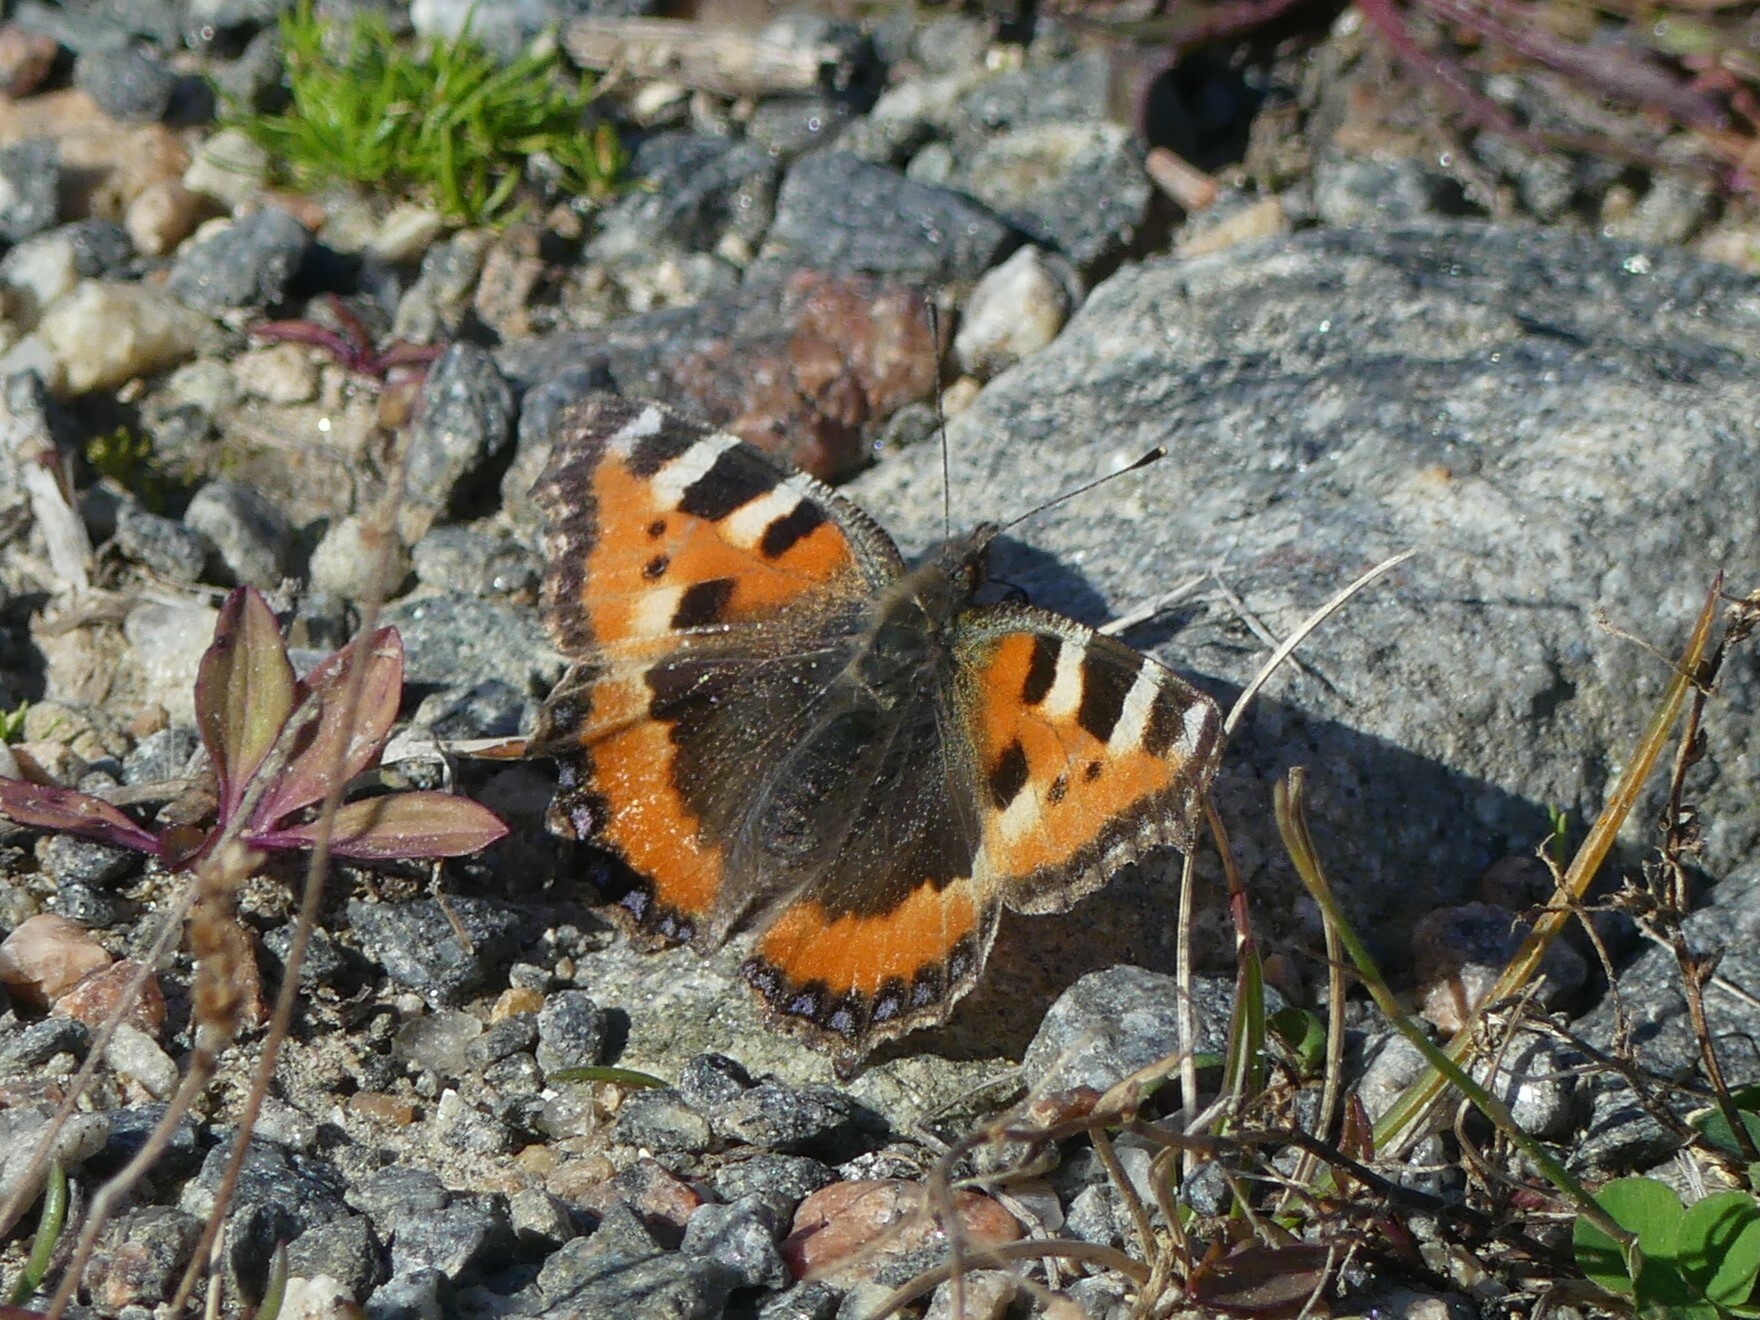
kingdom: Animalia
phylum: Arthropoda
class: Insecta
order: Lepidoptera
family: Nymphalidae
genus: Aglais
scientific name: Aglais urticae
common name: Small tortoiseshell
